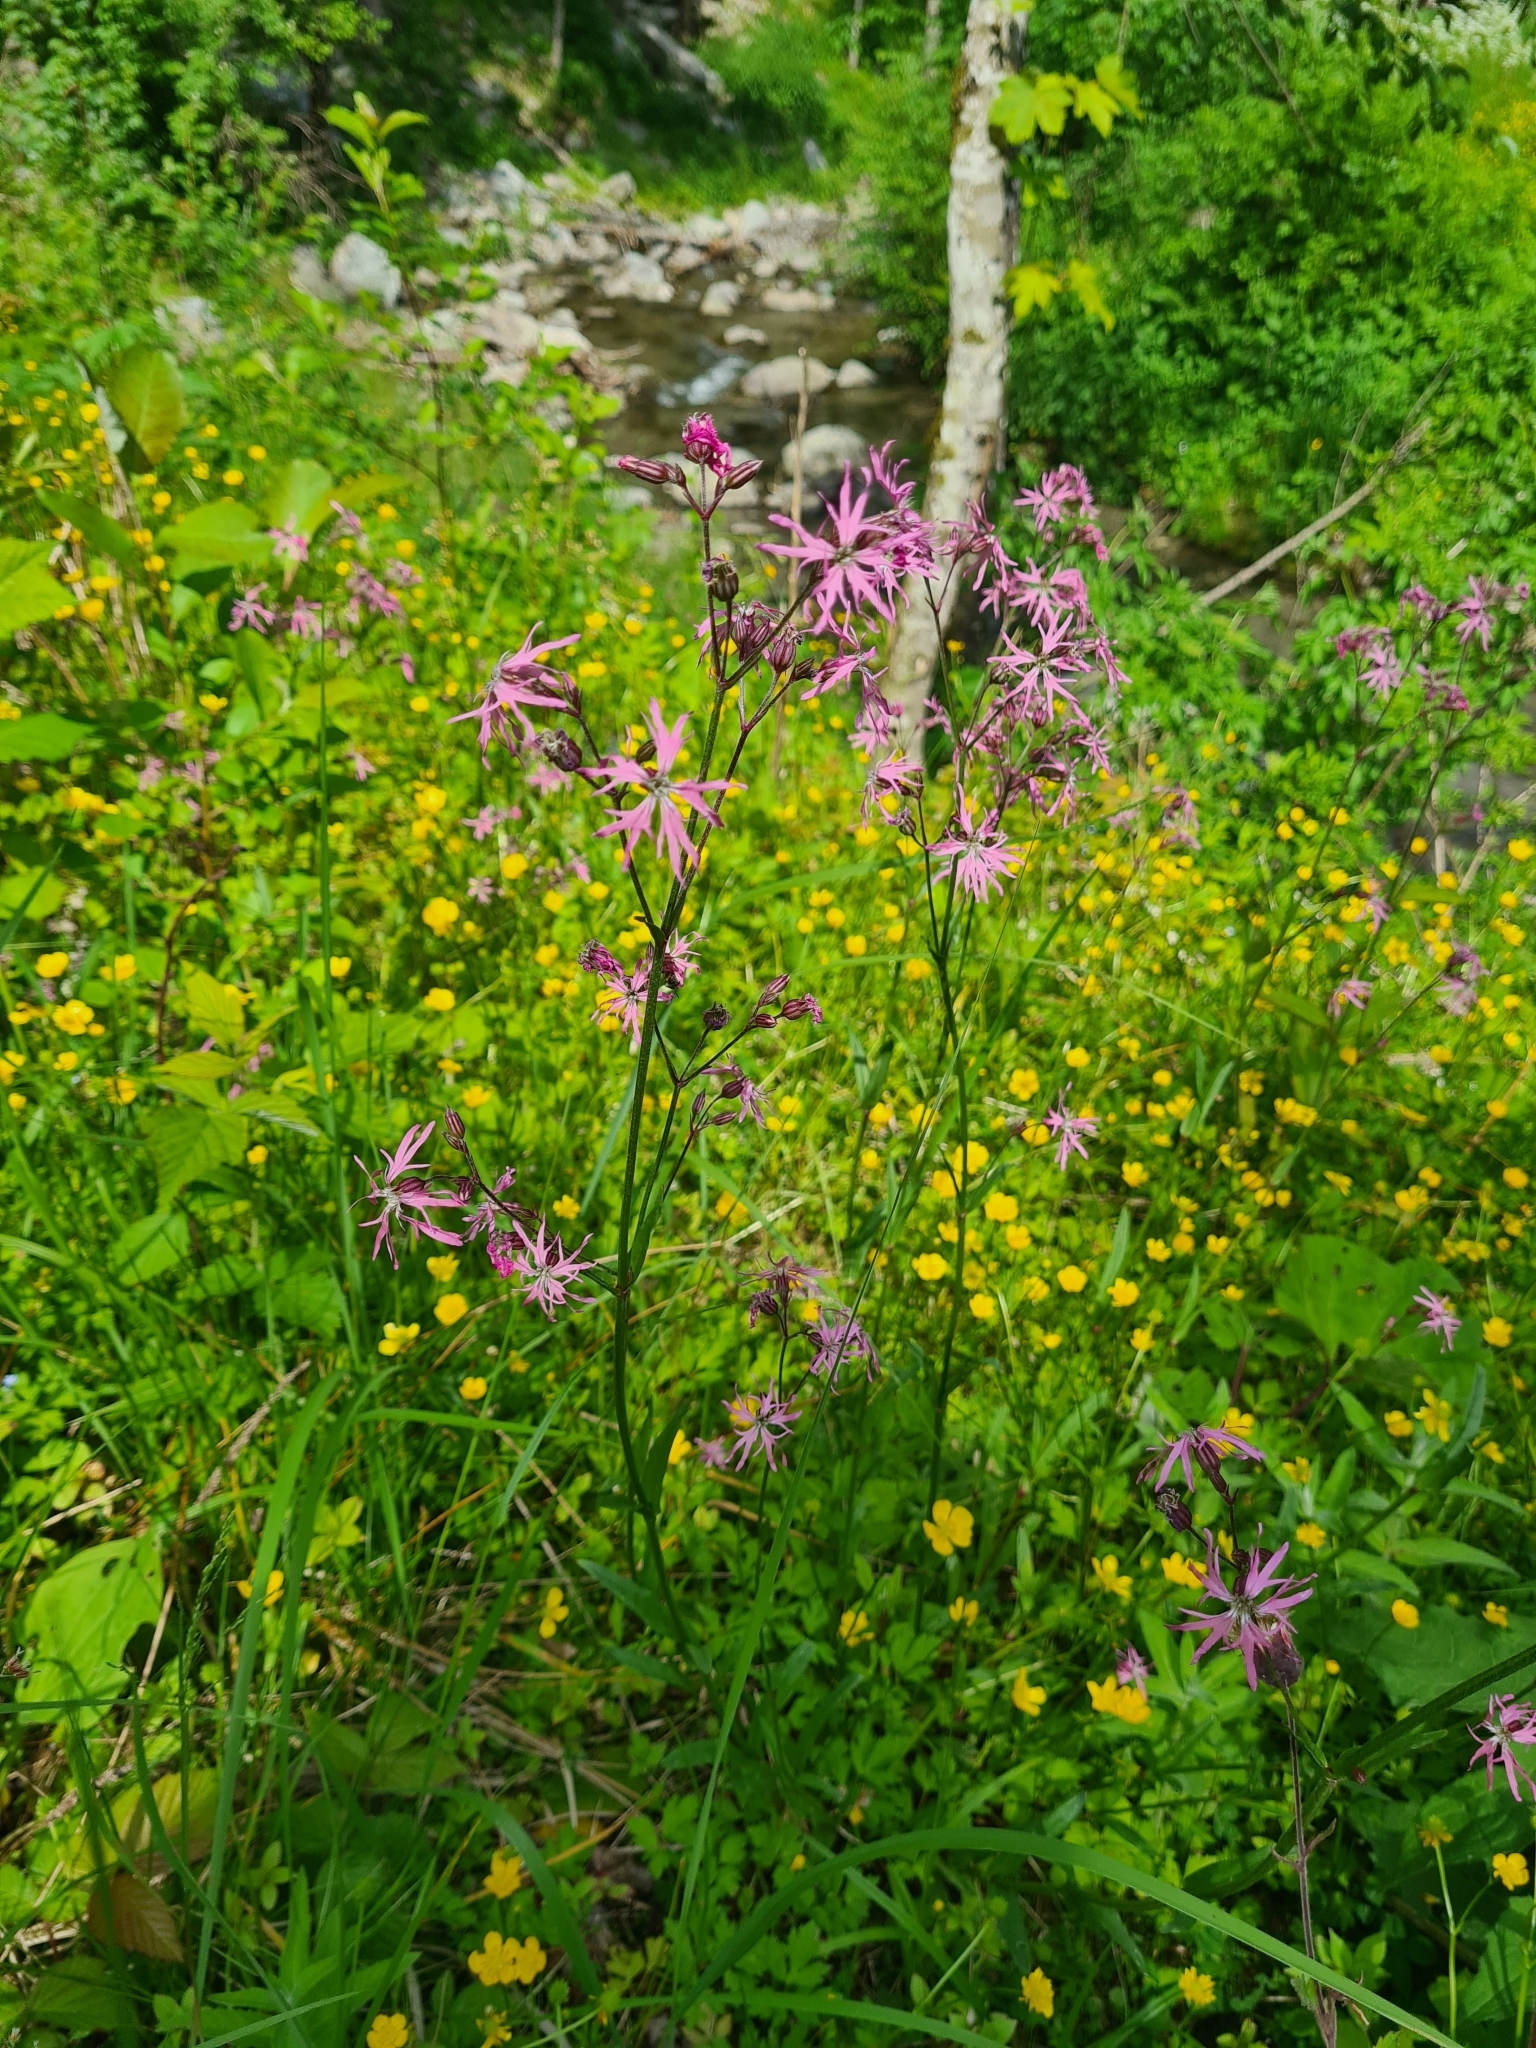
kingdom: Plantae
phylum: Tracheophyta
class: Magnoliopsida
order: Caryophyllales
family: Caryophyllaceae
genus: Silene
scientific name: Silene flos-cuculi
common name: Ragged-robin
